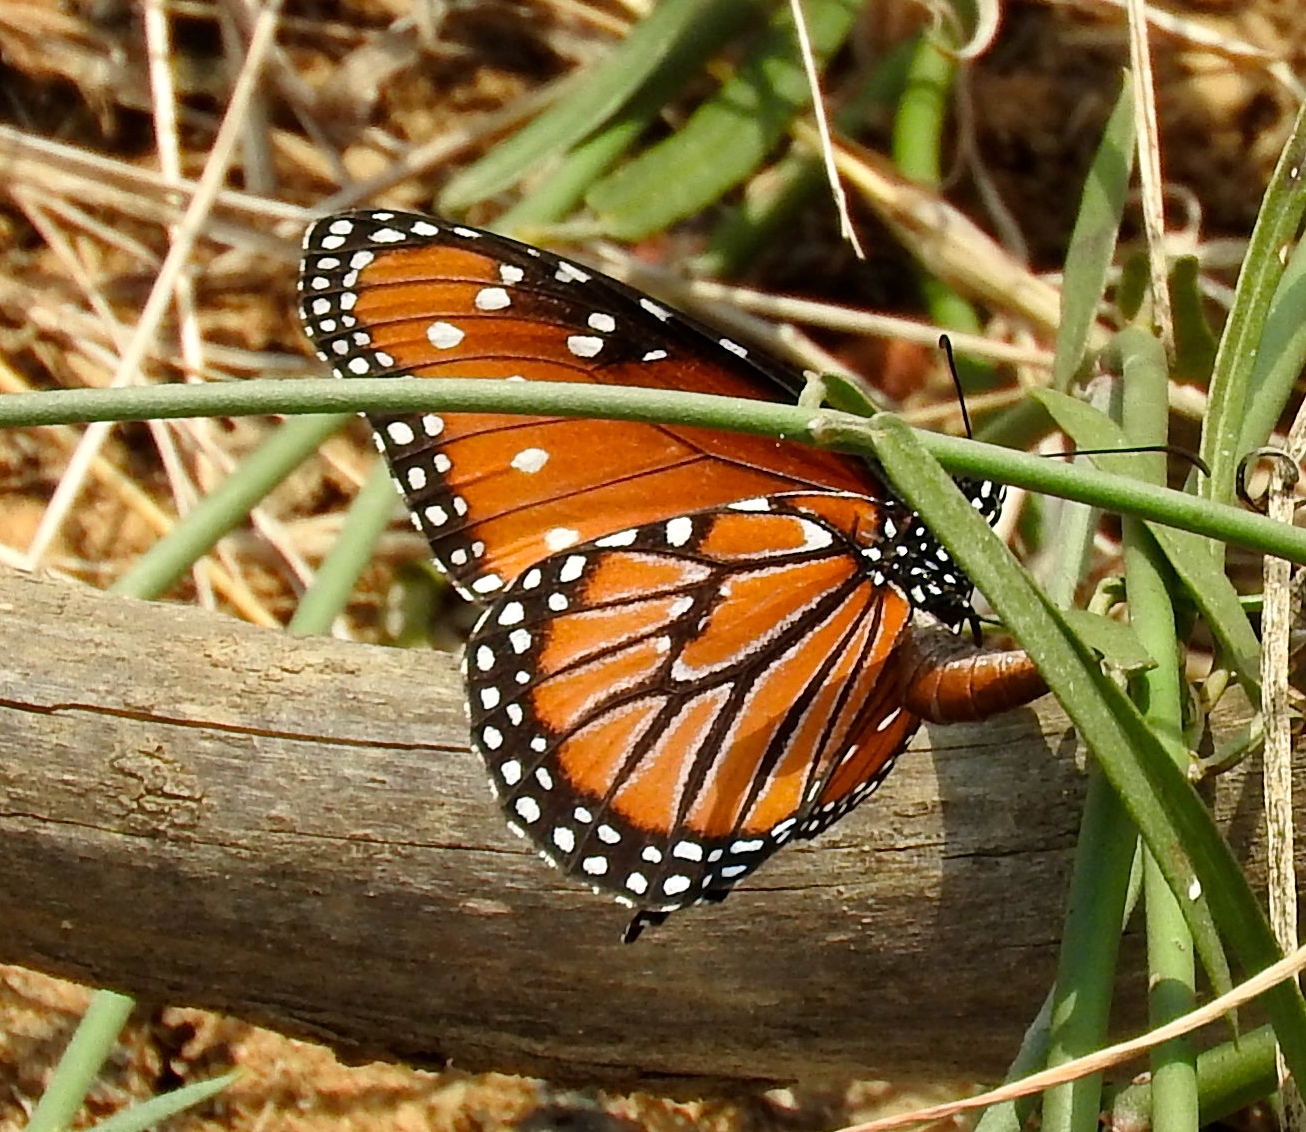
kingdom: Animalia
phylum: Arthropoda
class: Insecta
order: Lepidoptera
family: Nymphalidae
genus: Danaus
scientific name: Danaus gilippus
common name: Queen
